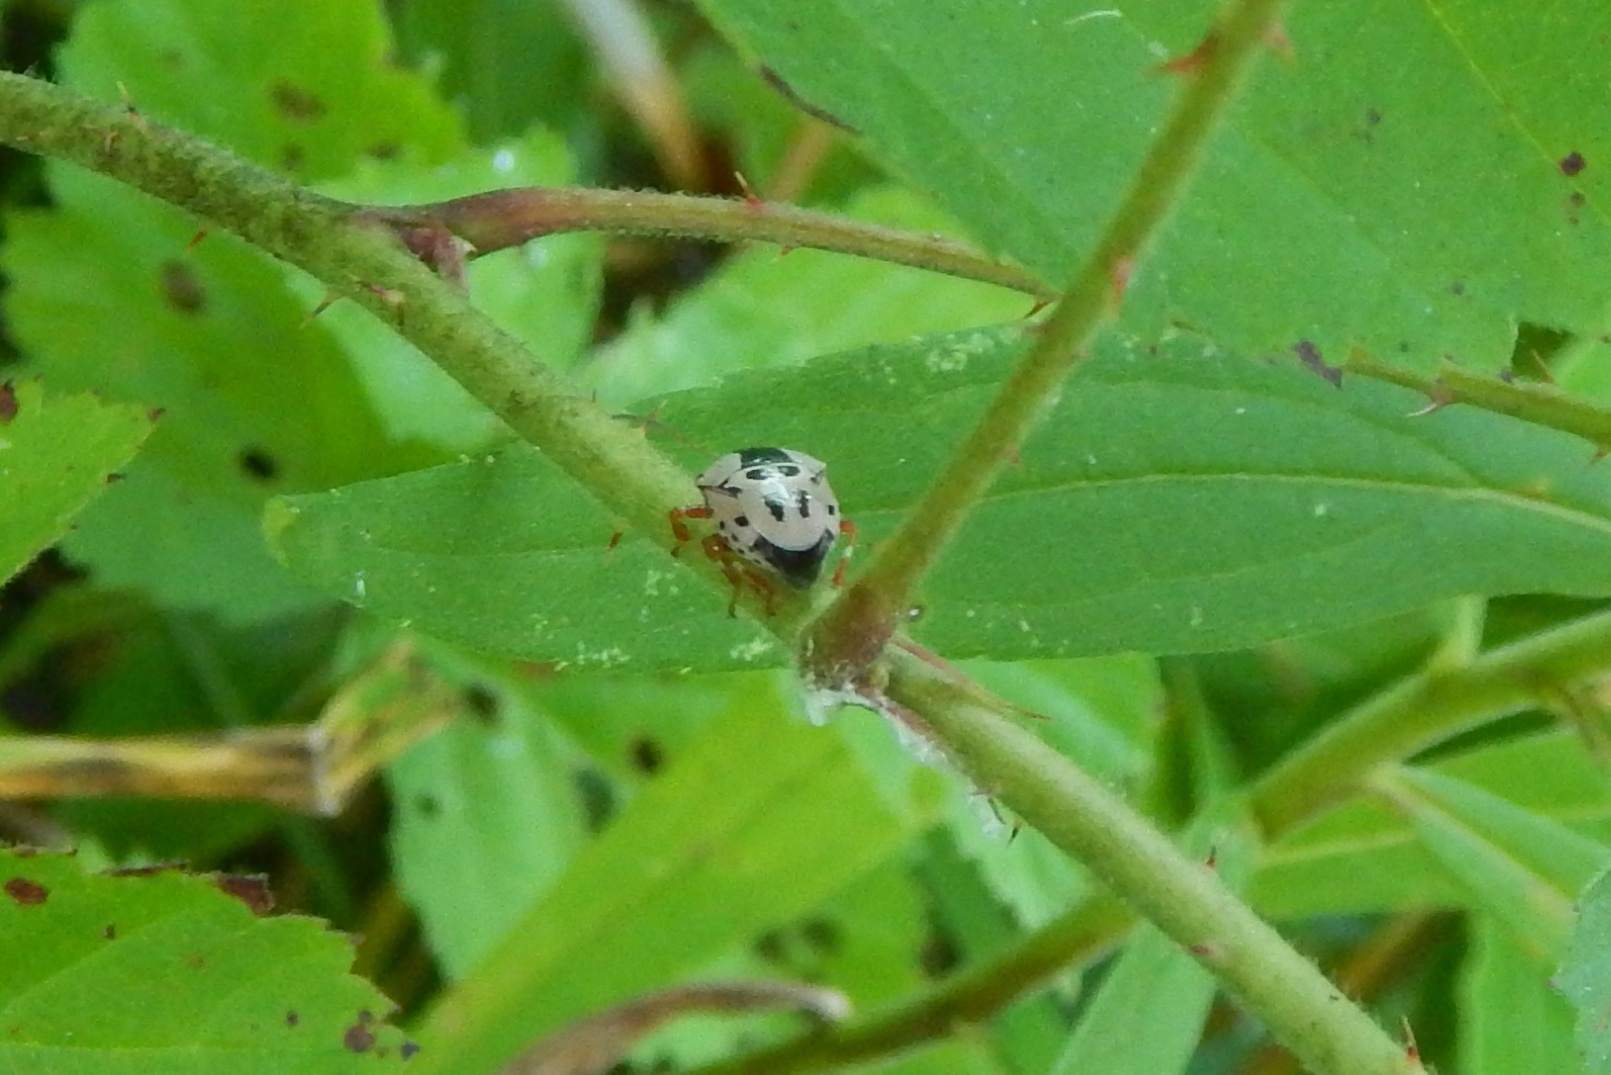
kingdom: Animalia
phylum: Arthropoda
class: Insecta
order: Hemiptera
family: Pentatomidae
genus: Stiretrus
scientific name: Stiretrus anchorago
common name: Anchor stink bug
